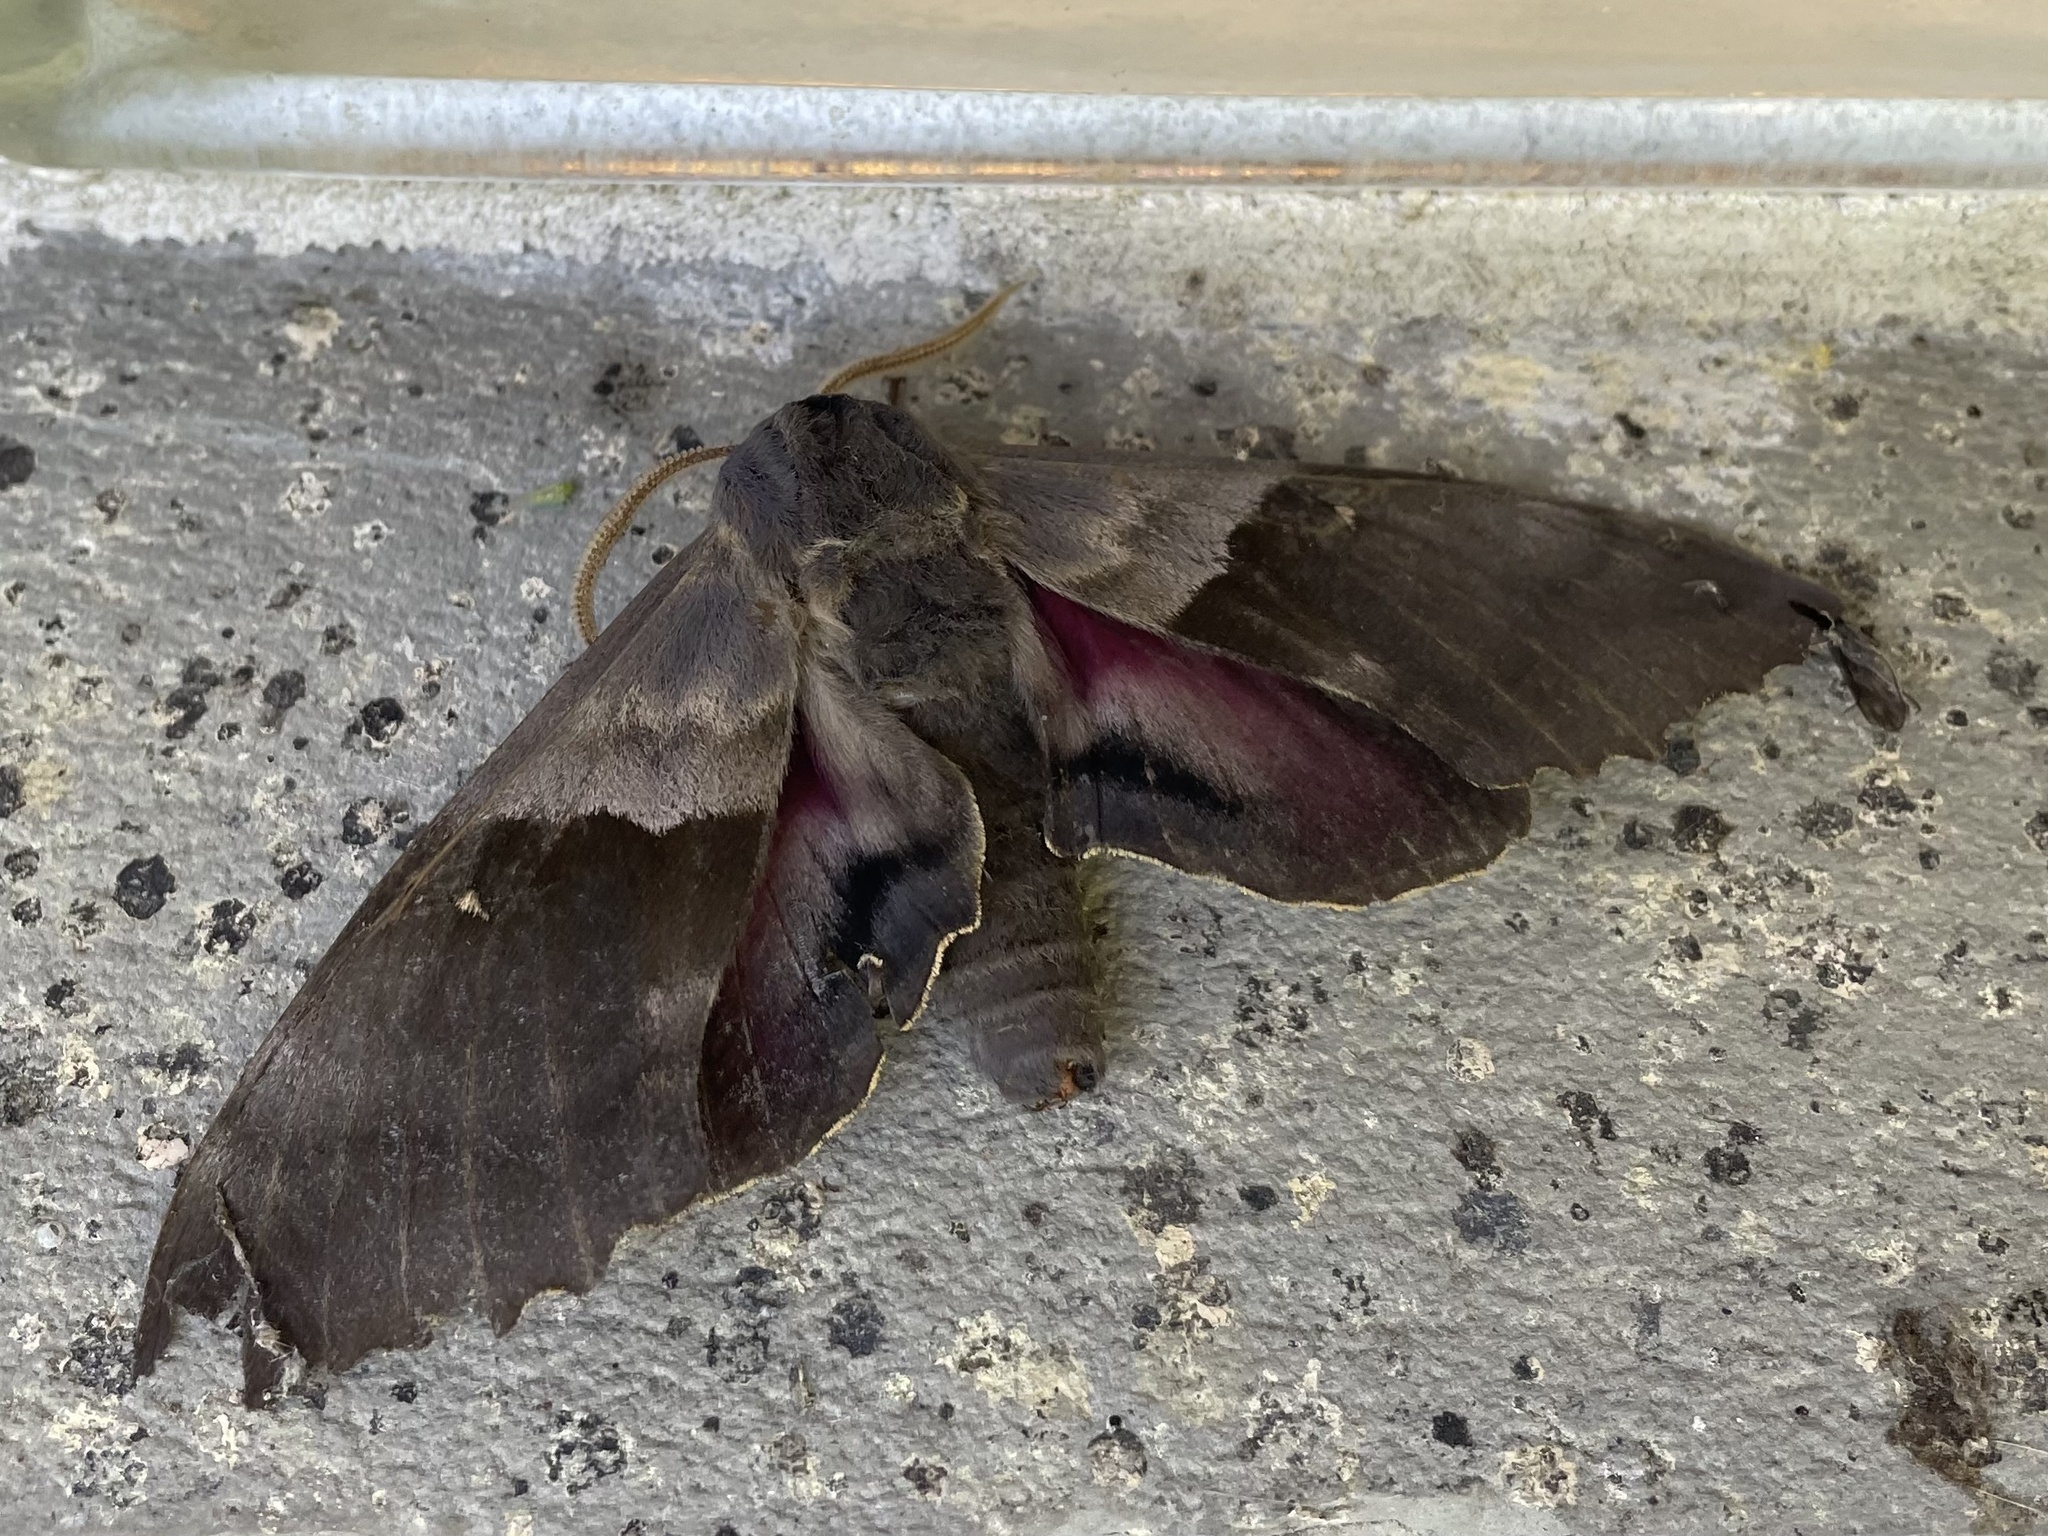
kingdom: Animalia
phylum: Arthropoda
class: Insecta
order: Lepidoptera
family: Sphingidae
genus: Pachysphinx
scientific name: Pachysphinx modesta
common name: Big poplar sphinx
